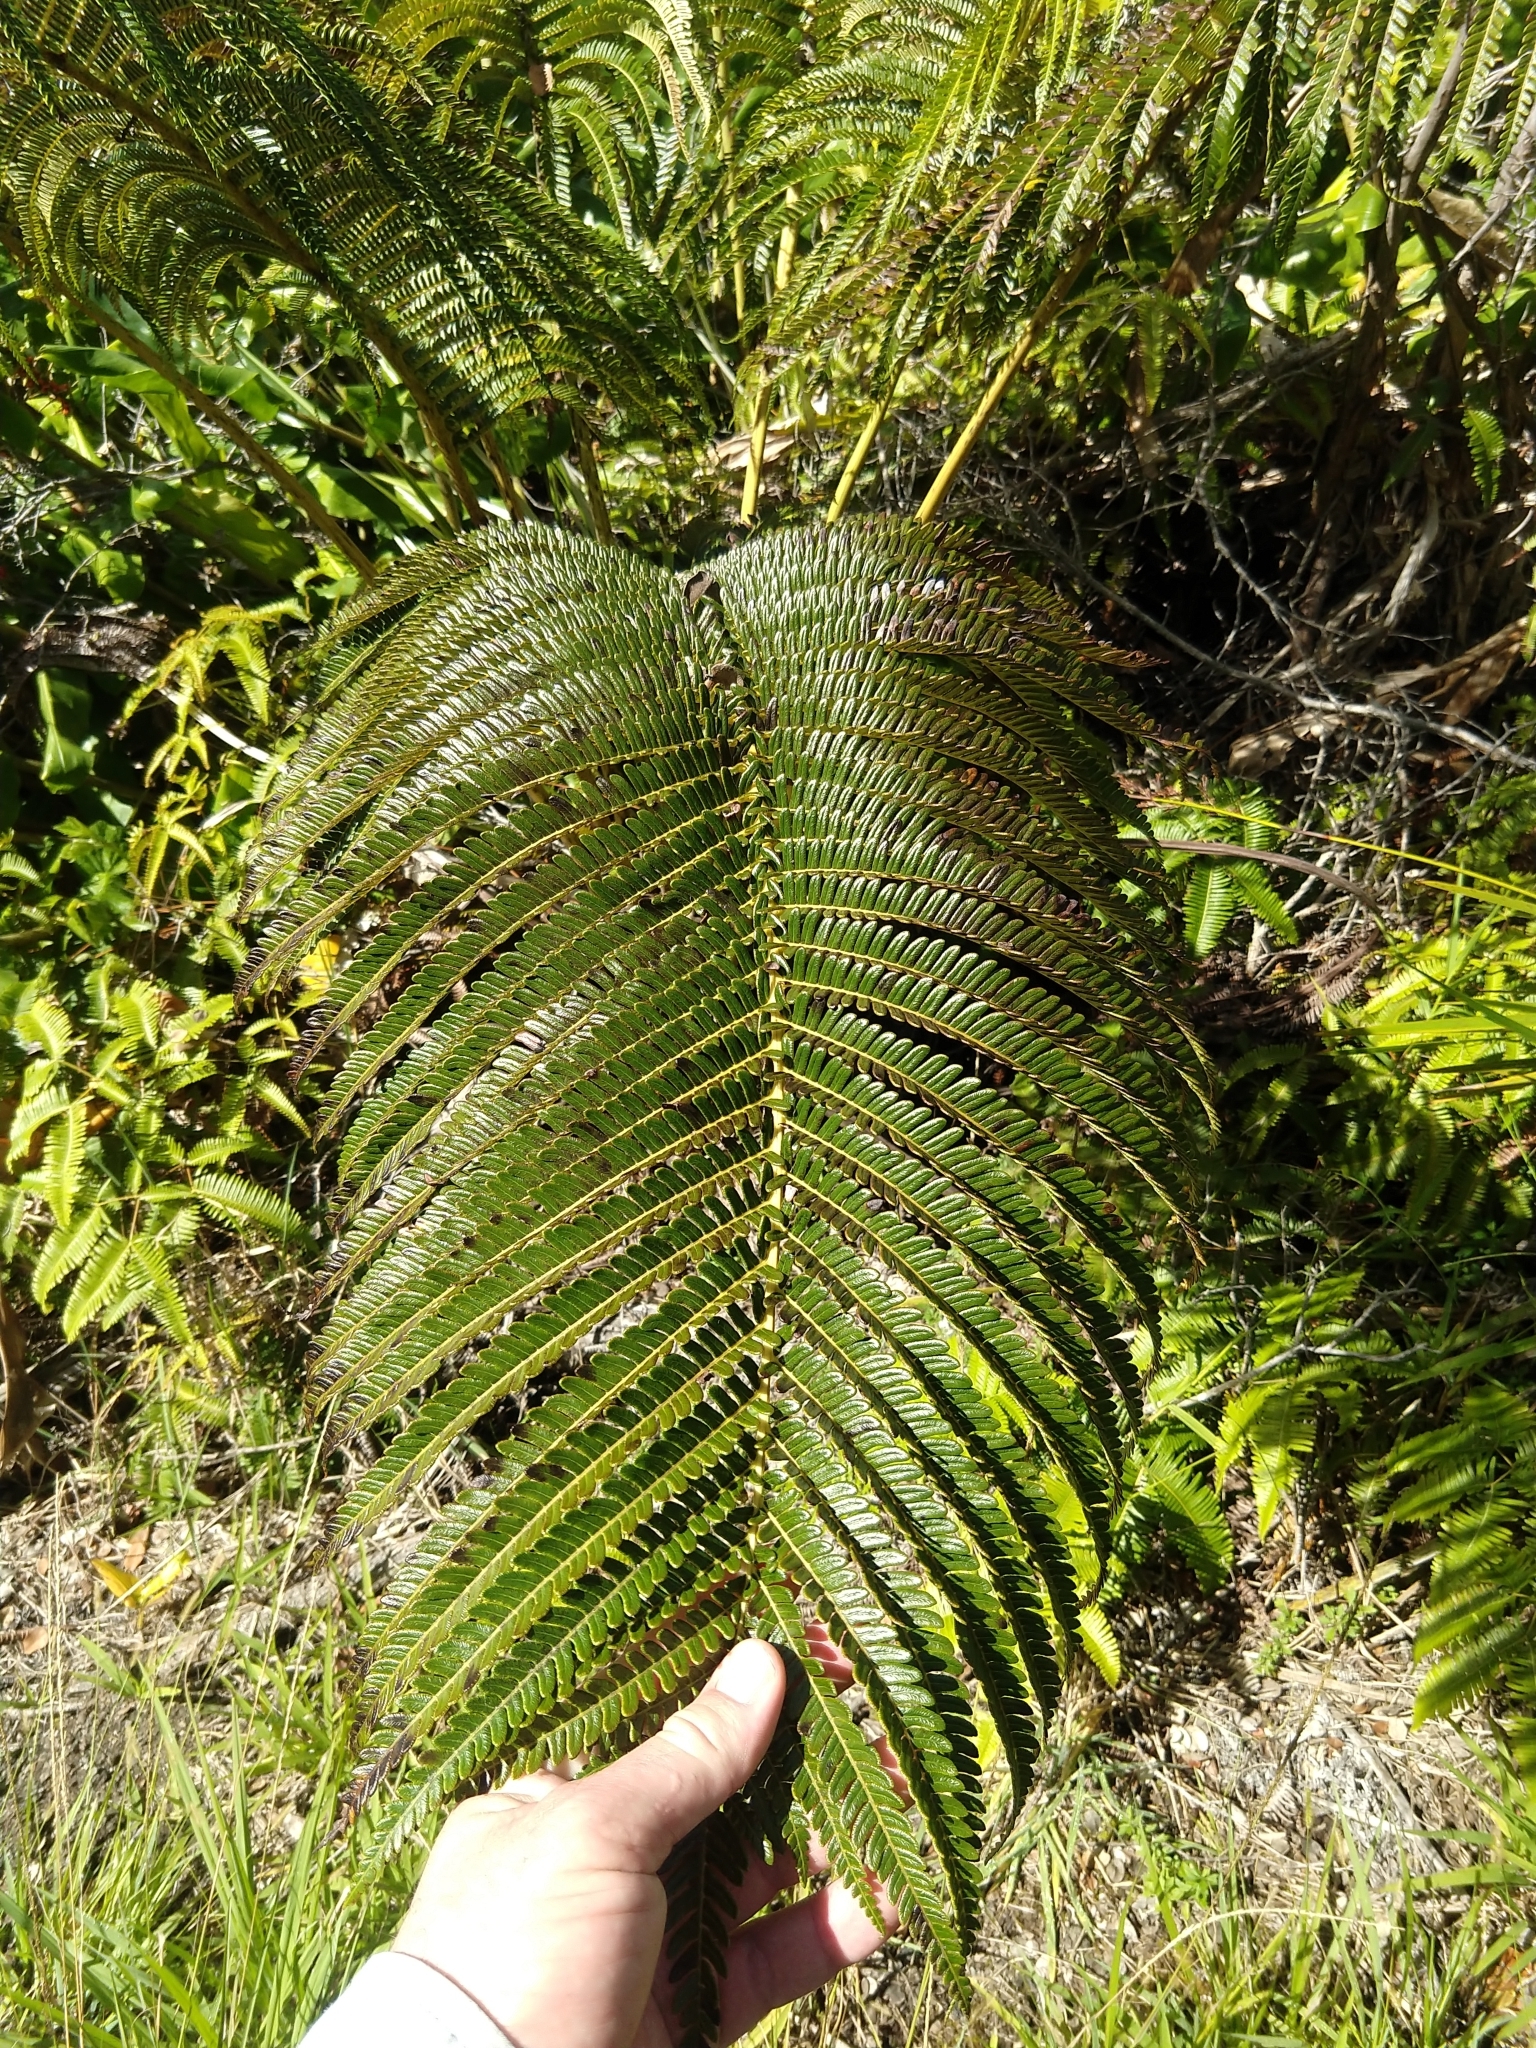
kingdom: Plantae
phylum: Tracheophyta
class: Polypodiopsida
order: Polypodiales
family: Blechnaceae
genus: Sadleria
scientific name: Sadleria cyatheoides
